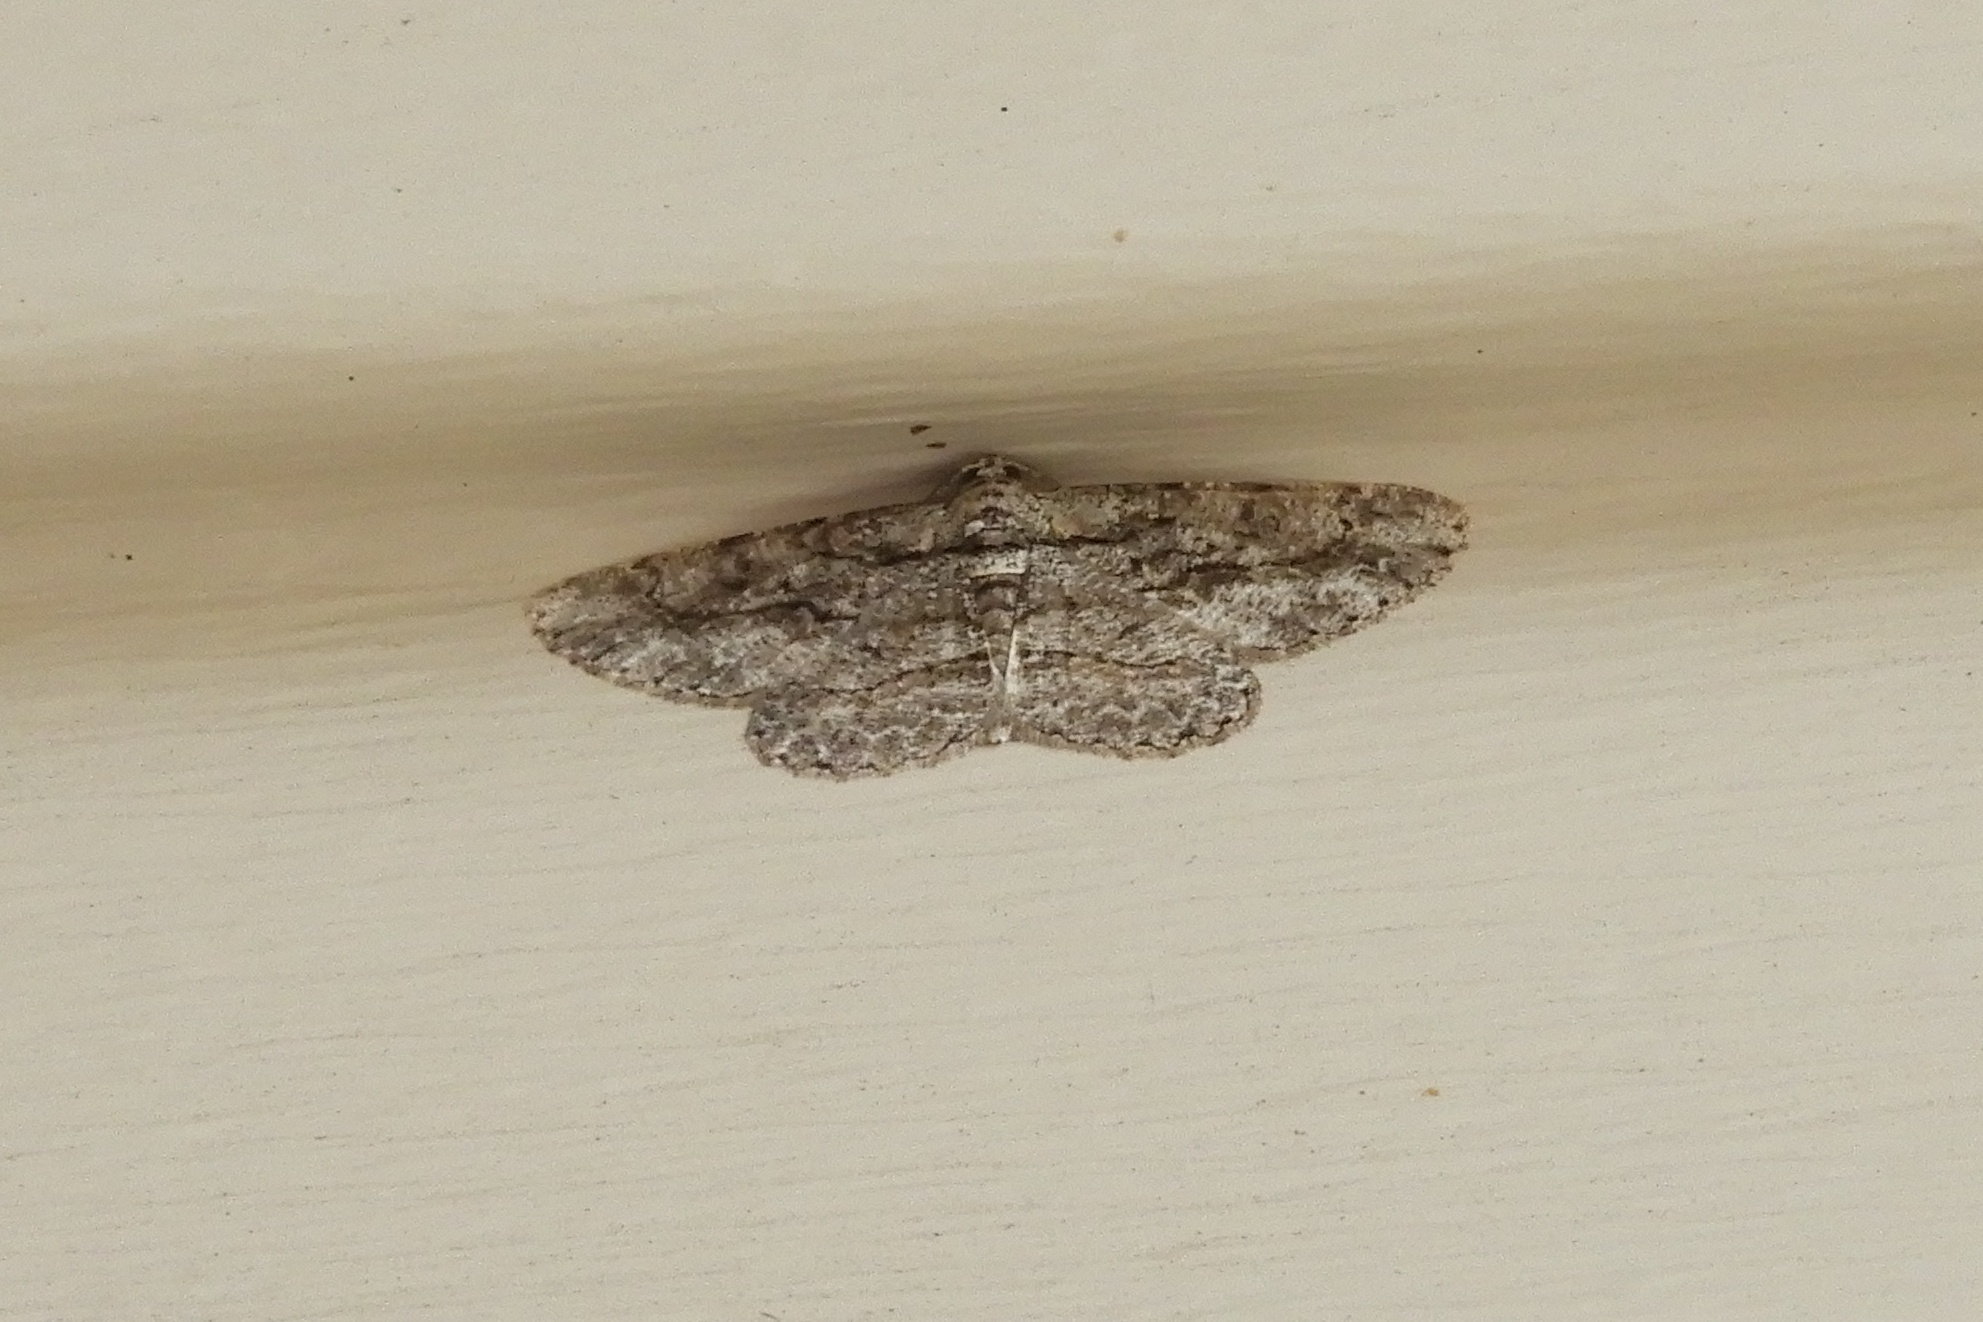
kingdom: Animalia
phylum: Arthropoda
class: Insecta
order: Lepidoptera
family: Geometridae
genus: Anavitrinella
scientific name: Anavitrinella pampinaria
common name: Common gray
